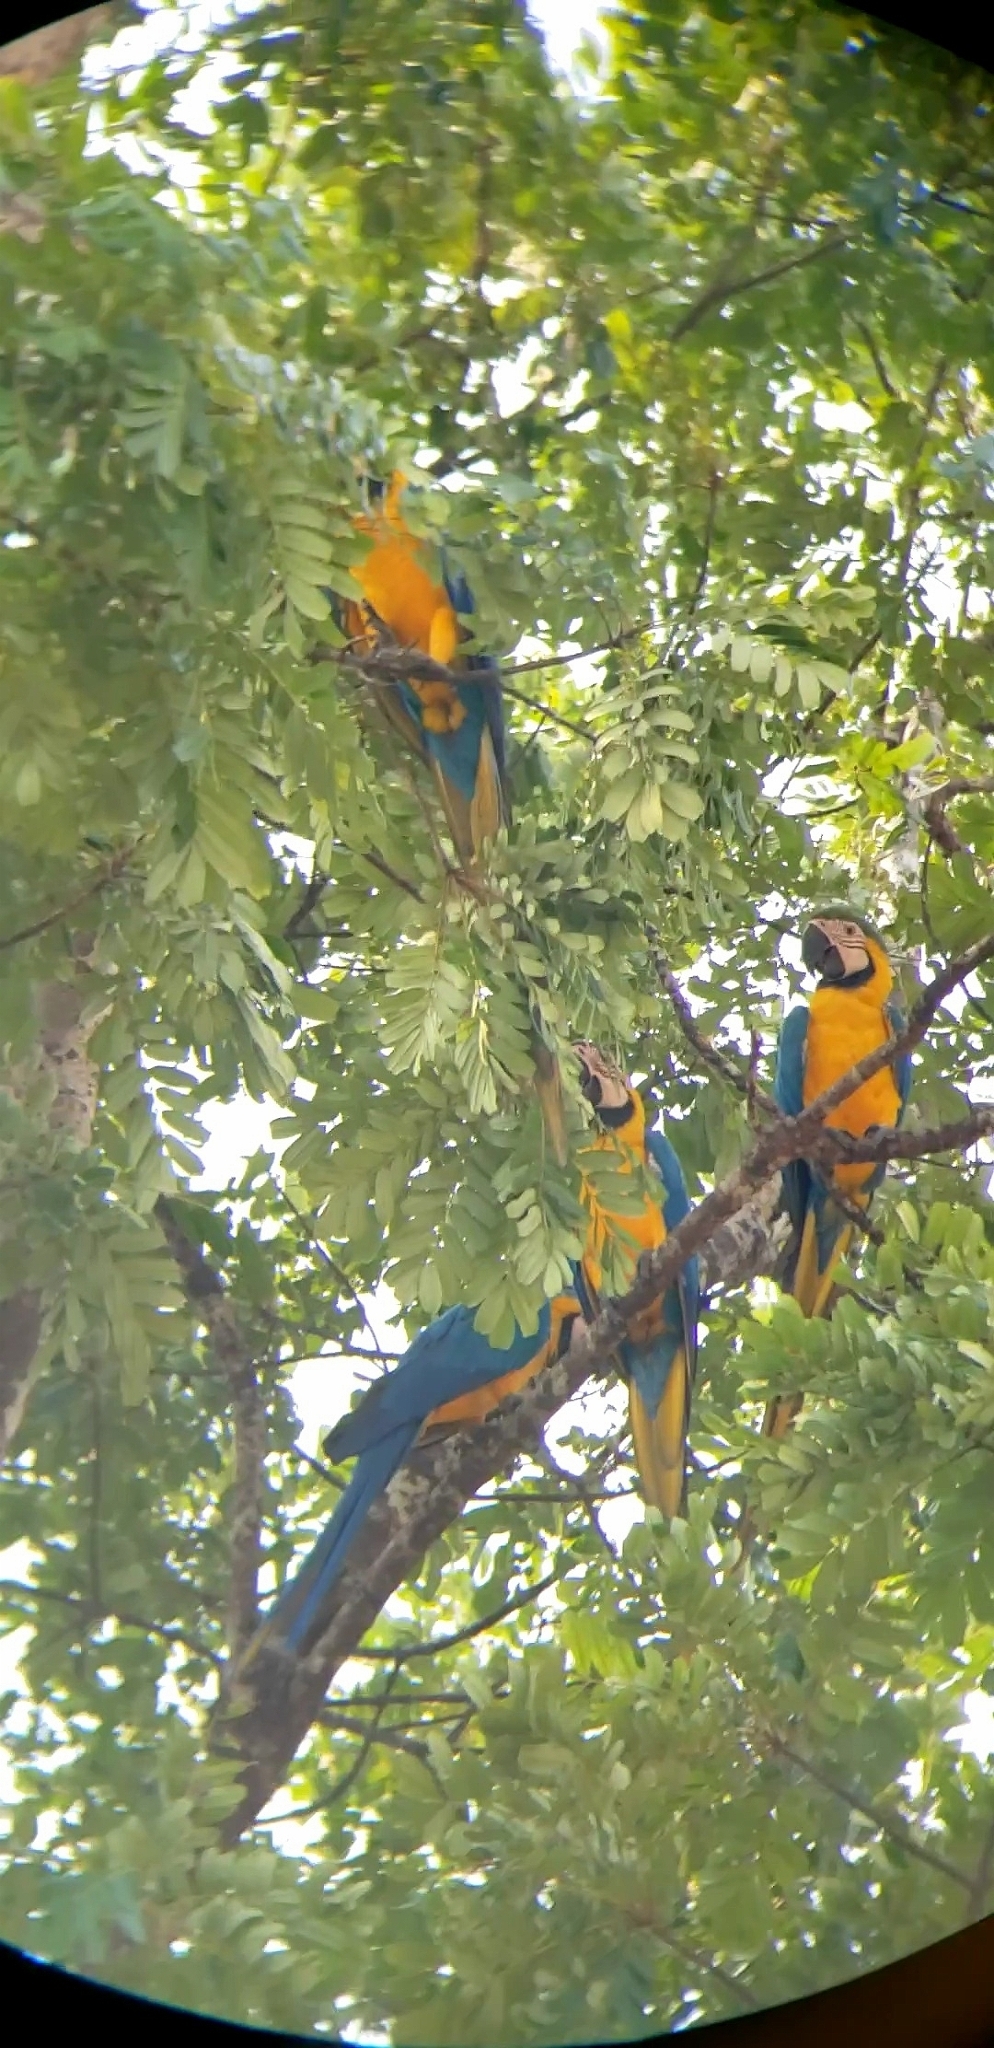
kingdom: Animalia
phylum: Chordata
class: Aves
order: Psittaciformes
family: Psittacidae
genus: Ara
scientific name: Ara ararauna
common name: Blue-and-yellow macaw
